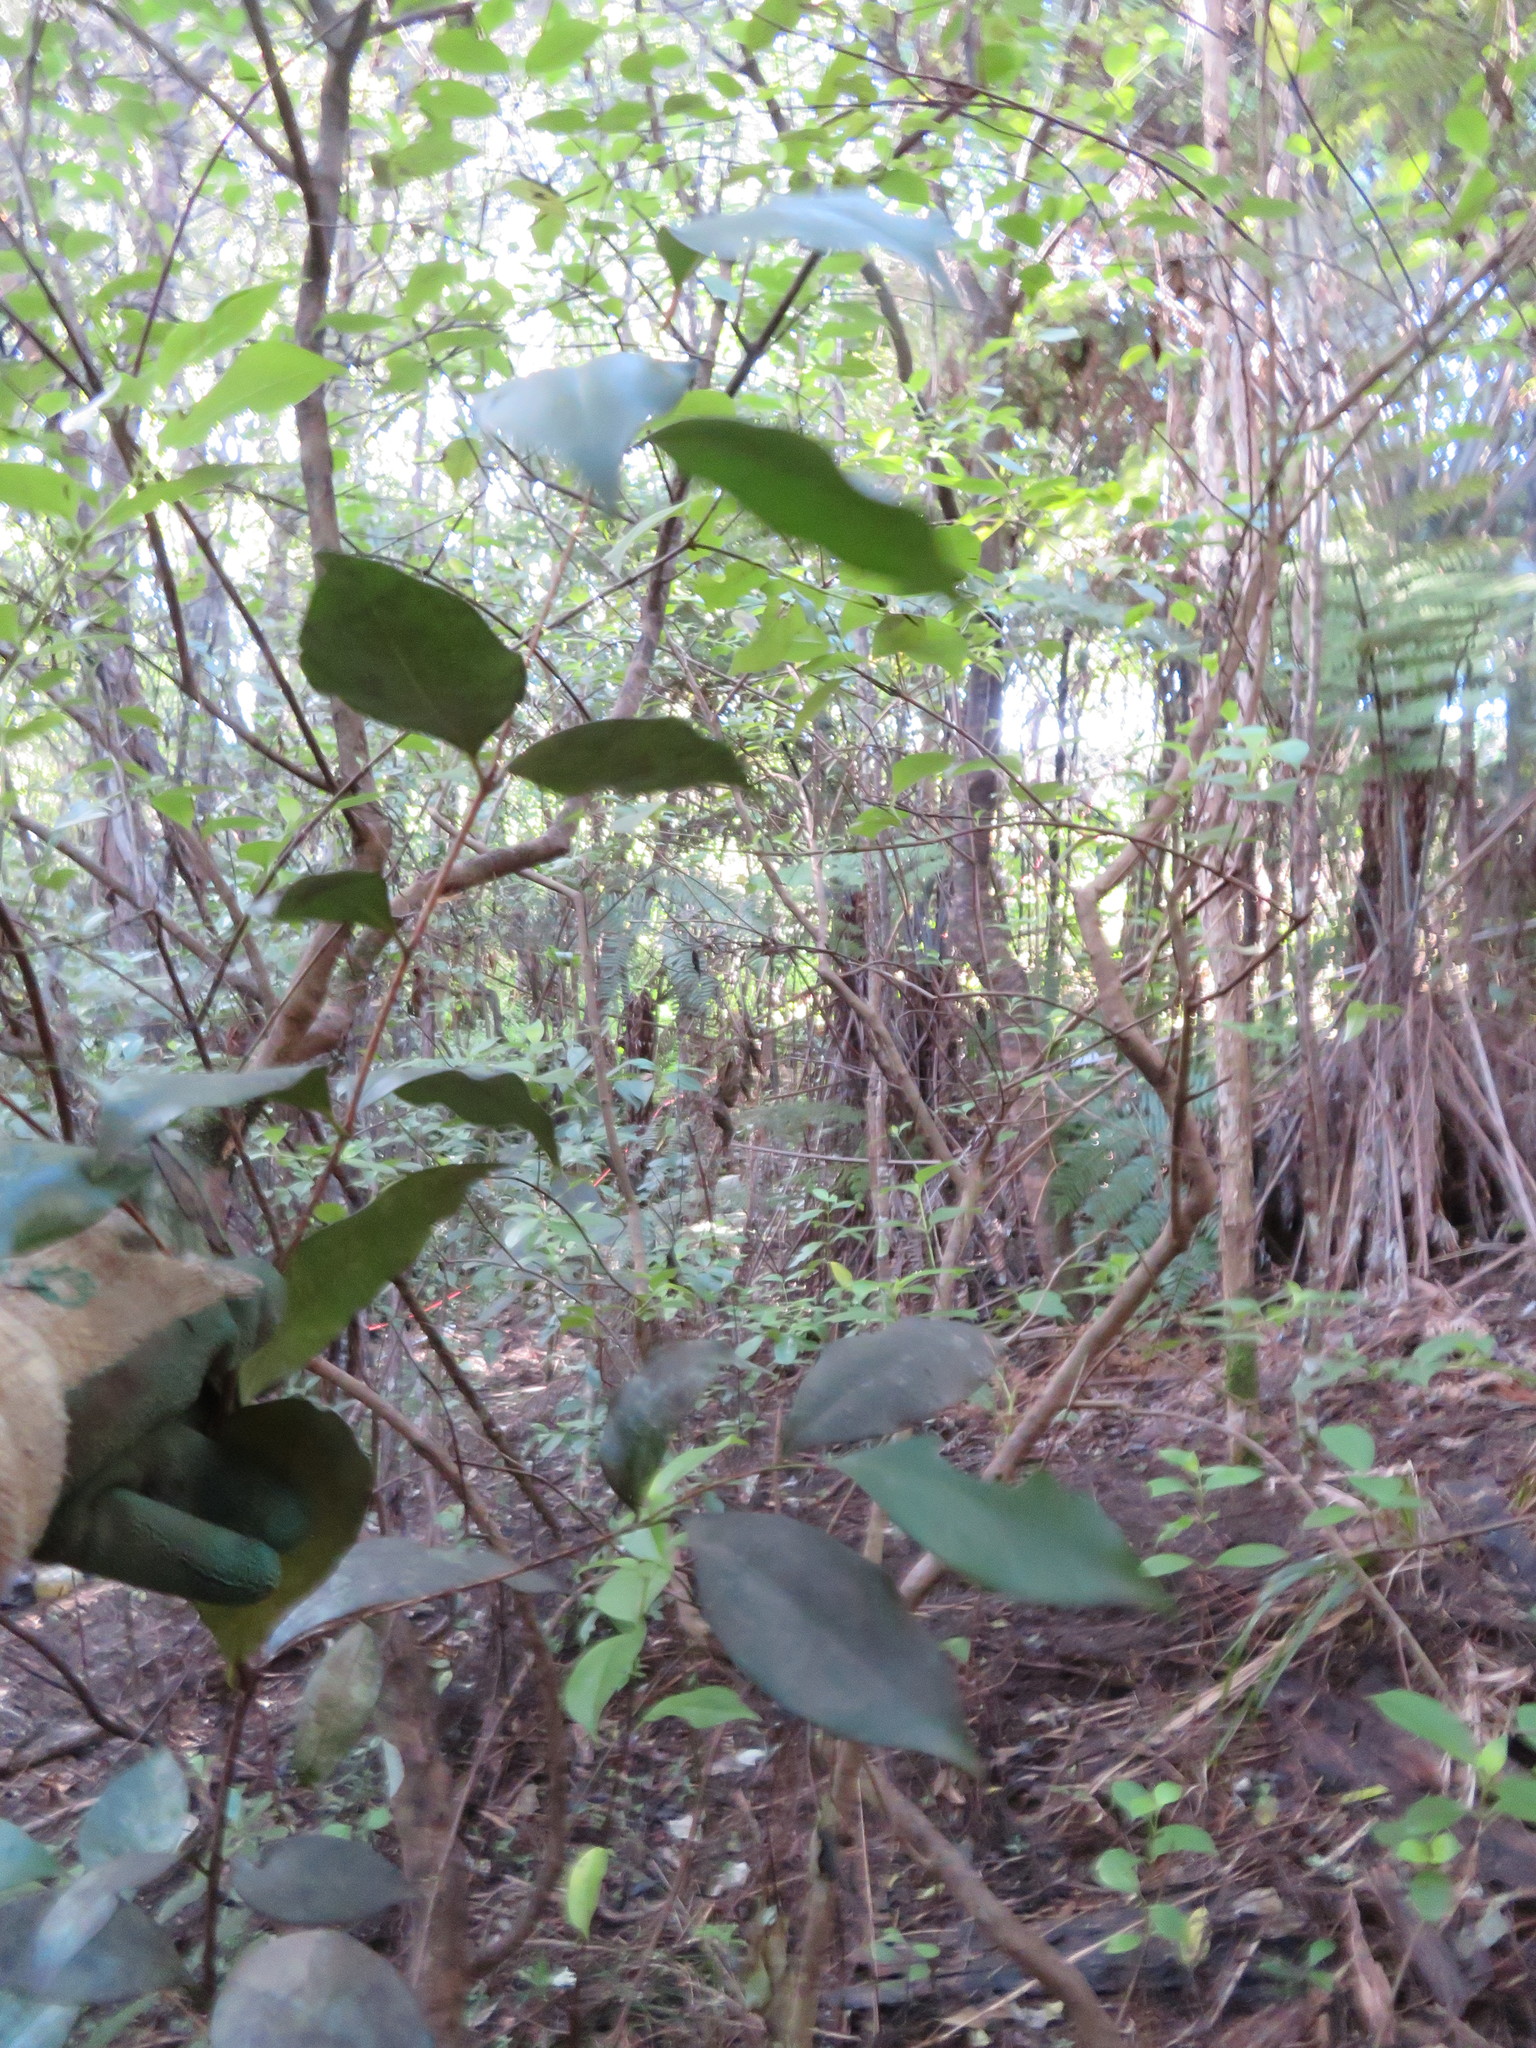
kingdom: Plantae
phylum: Tracheophyta
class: Magnoliopsida
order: Myrtales
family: Myrtaceae
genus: Syzygium
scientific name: Syzygium paniculatum
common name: Magenta lilly-pilly
